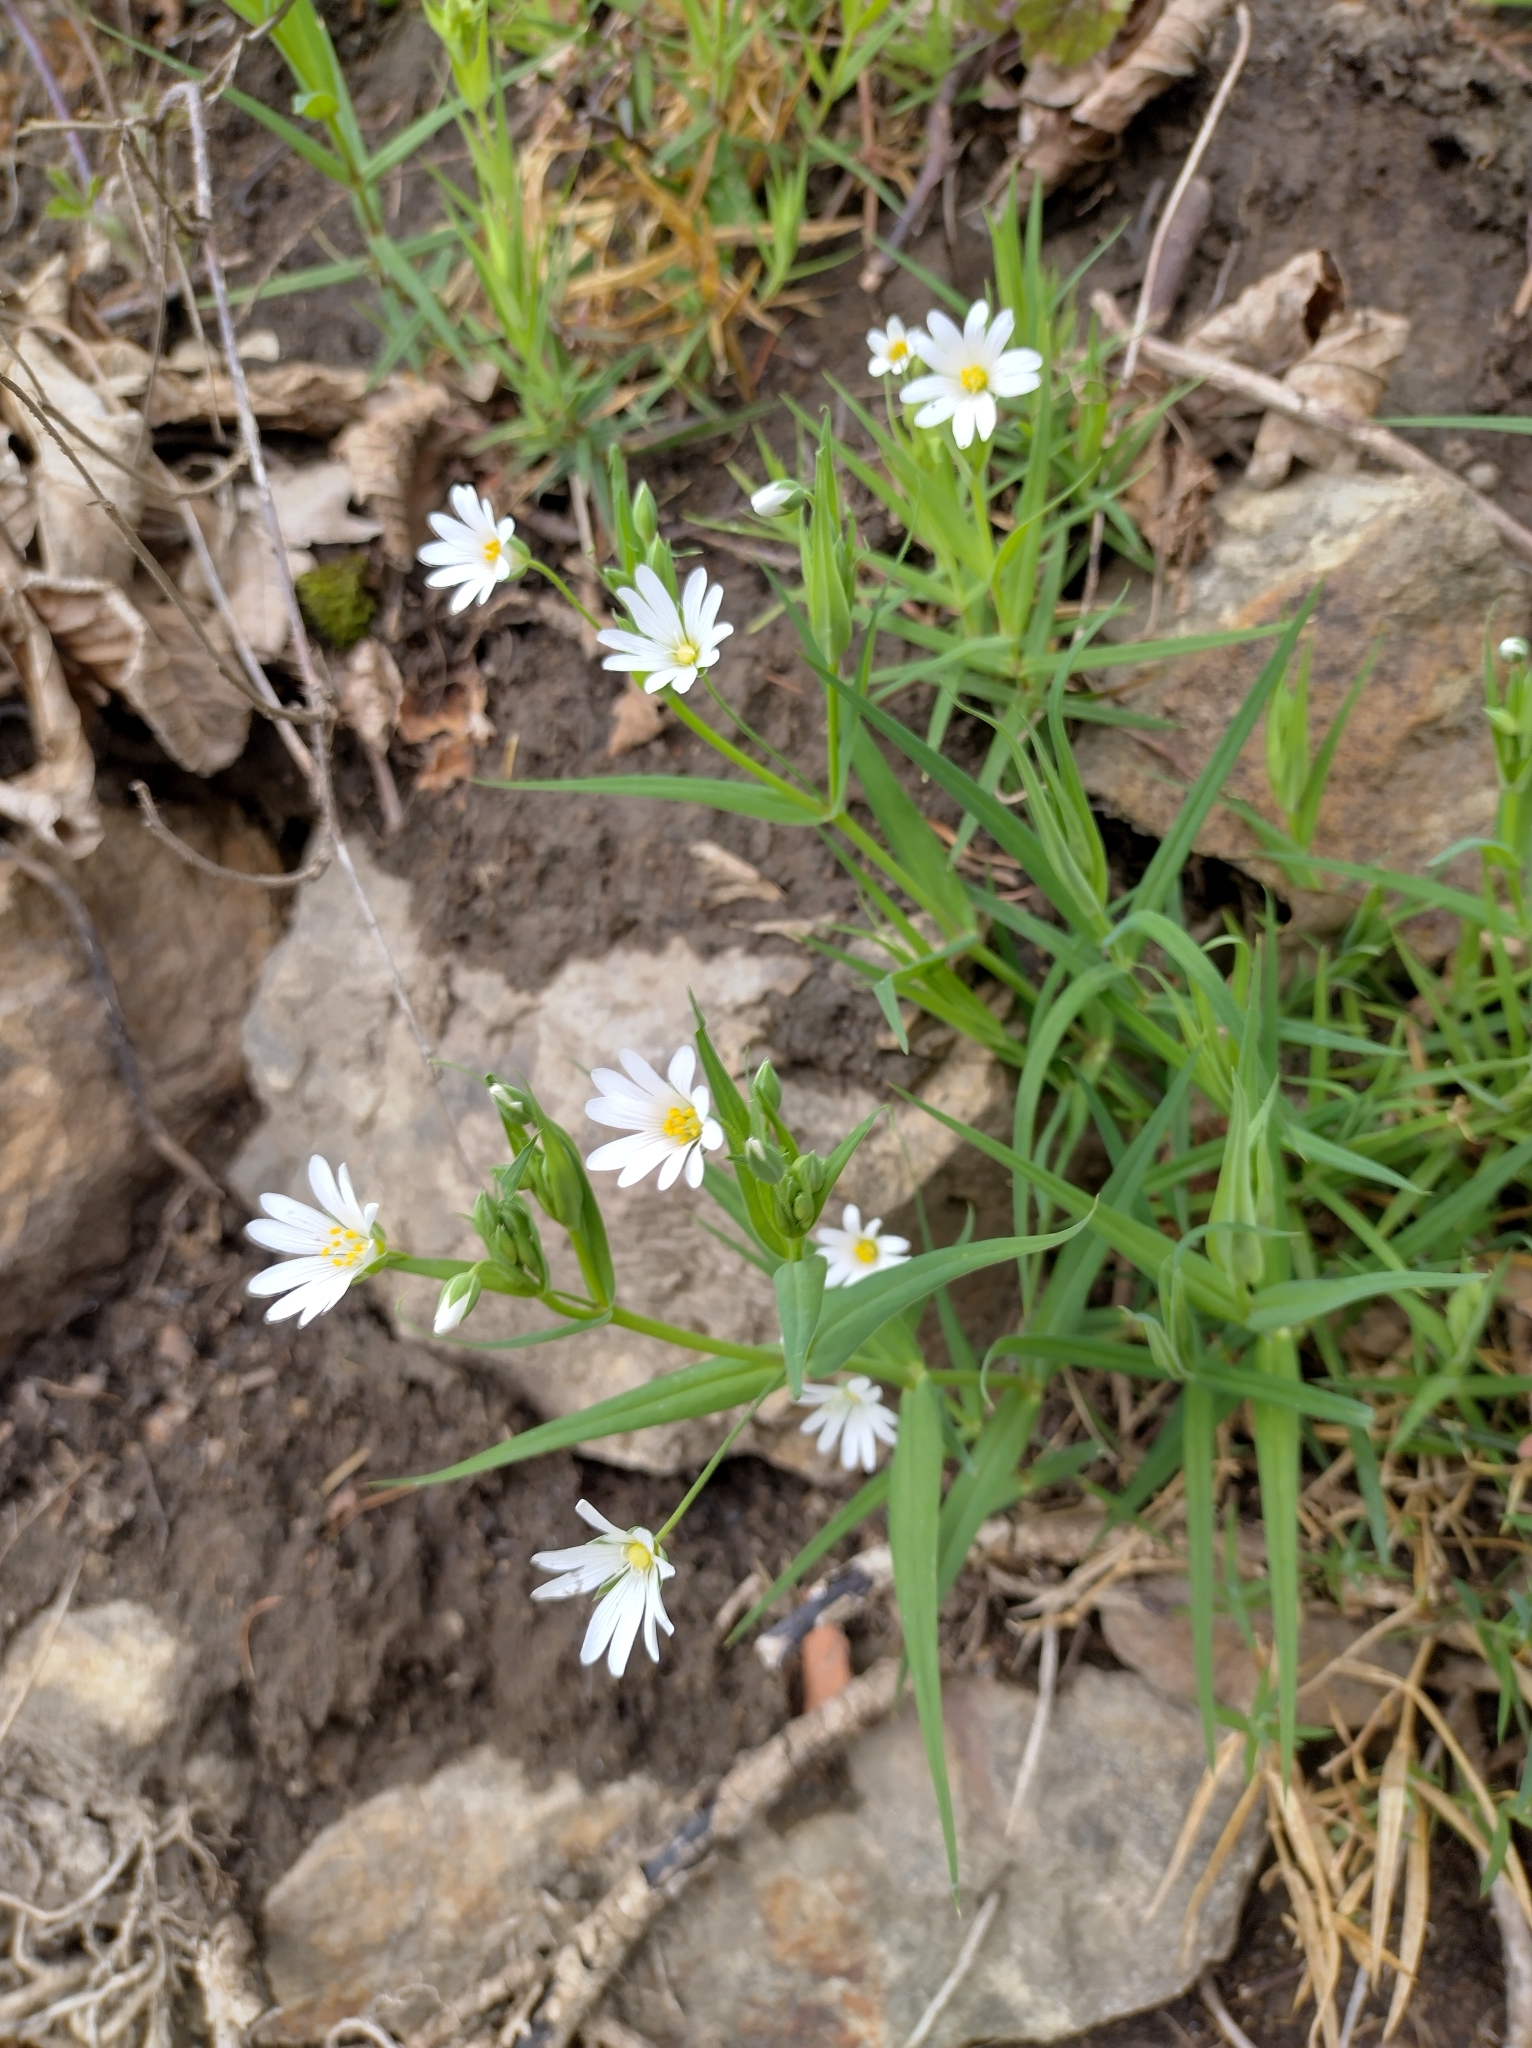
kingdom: Plantae
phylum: Tracheophyta
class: Magnoliopsida
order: Caryophyllales
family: Caryophyllaceae
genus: Rabelera
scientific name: Rabelera holostea
